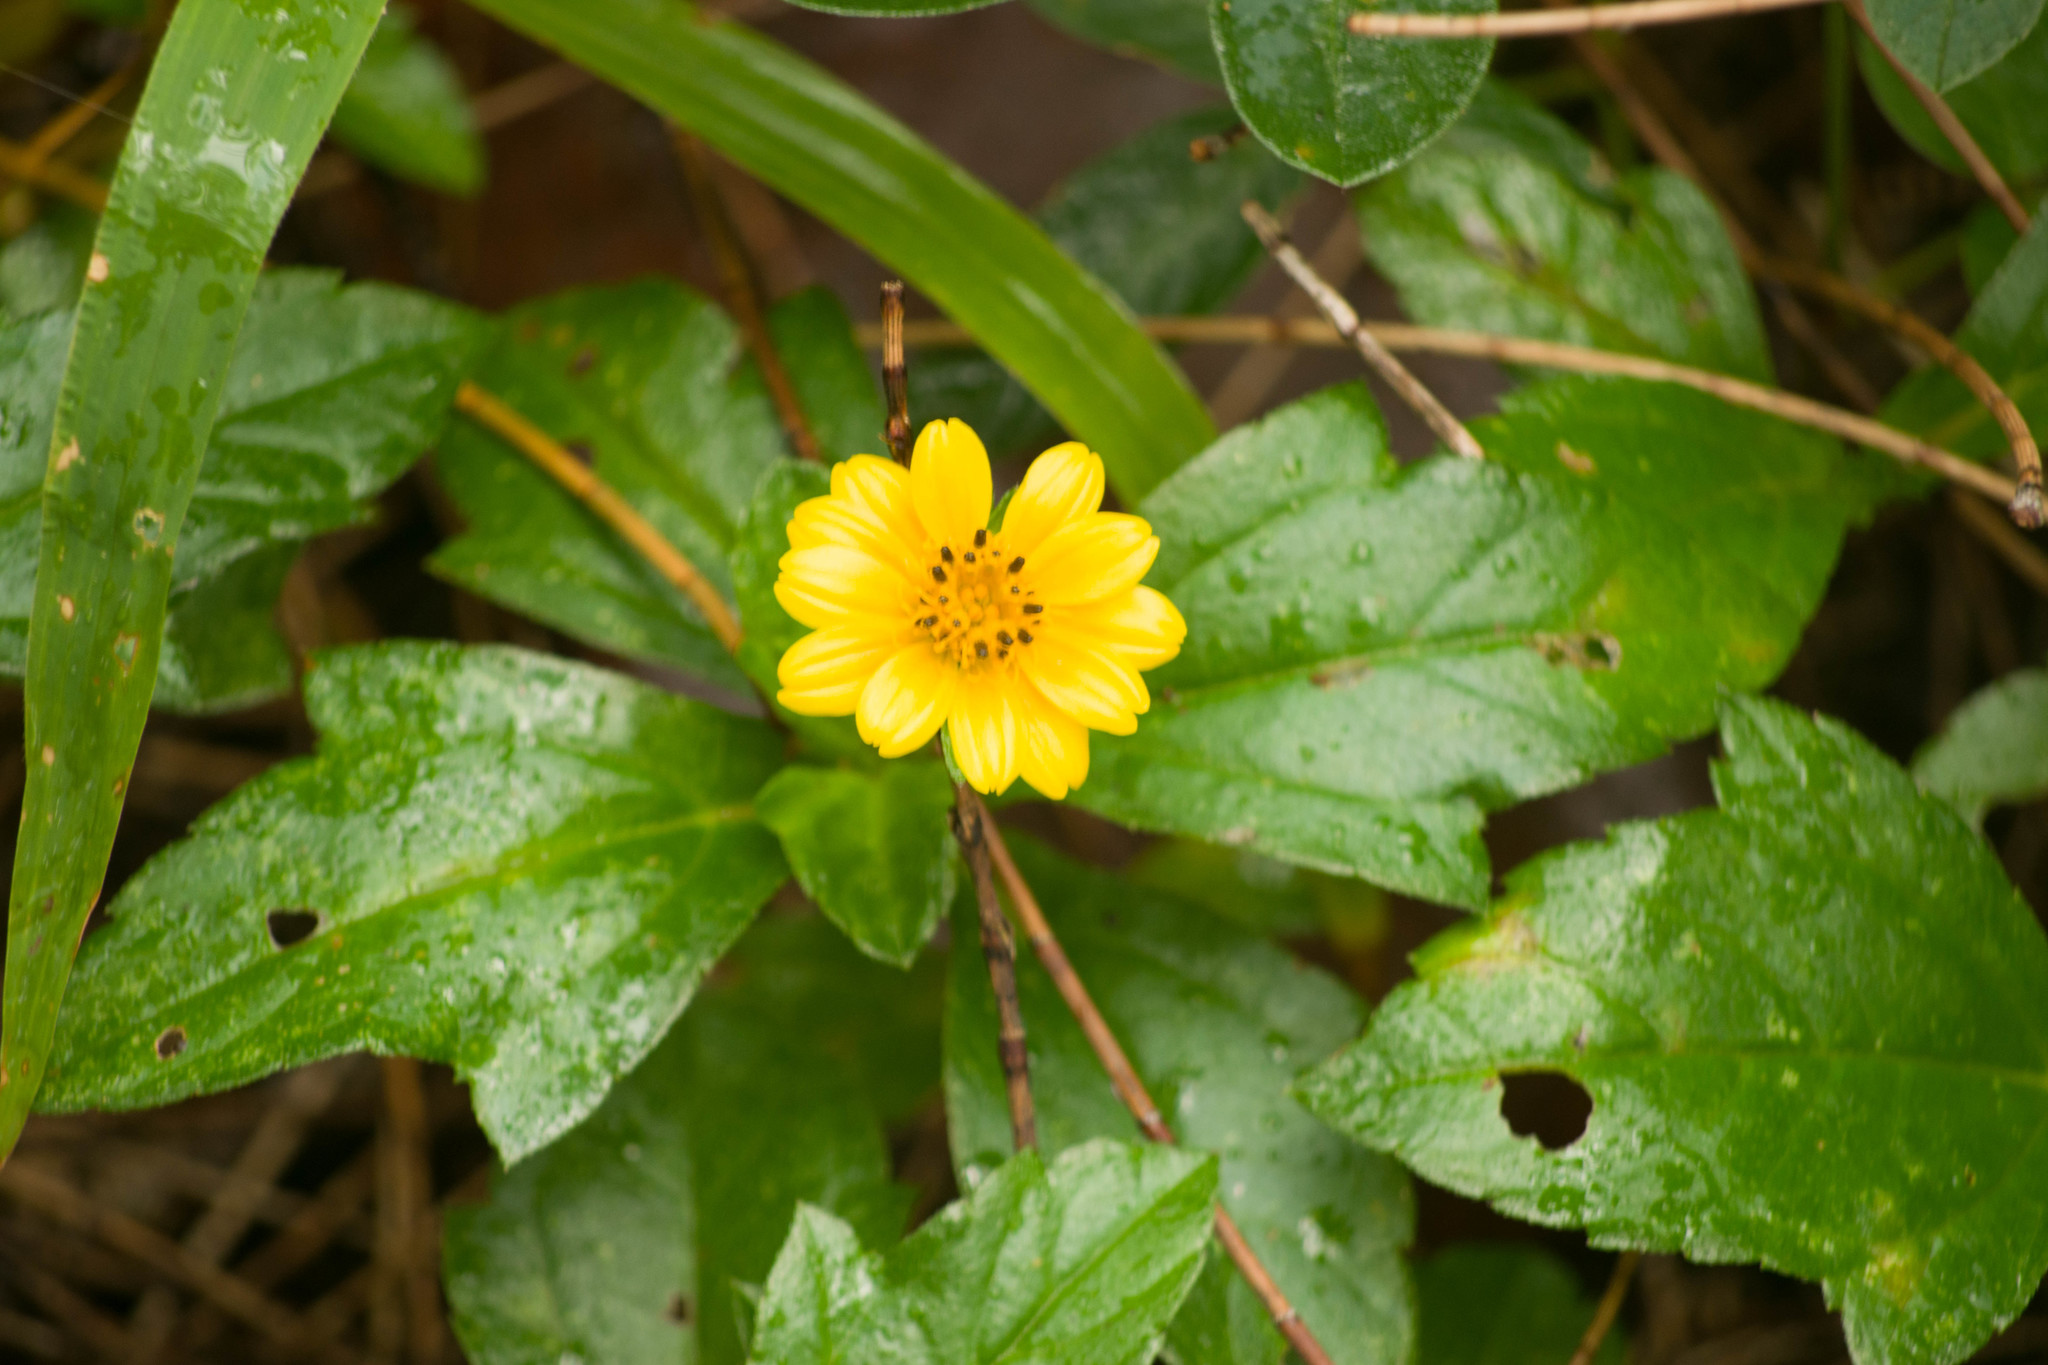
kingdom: Plantae
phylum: Tracheophyta
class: Magnoliopsida
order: Asterales
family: Asteraceae
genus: Sphagneticola
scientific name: Sphagneticola trilobata
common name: Bay biscayne creeping-oxeye
